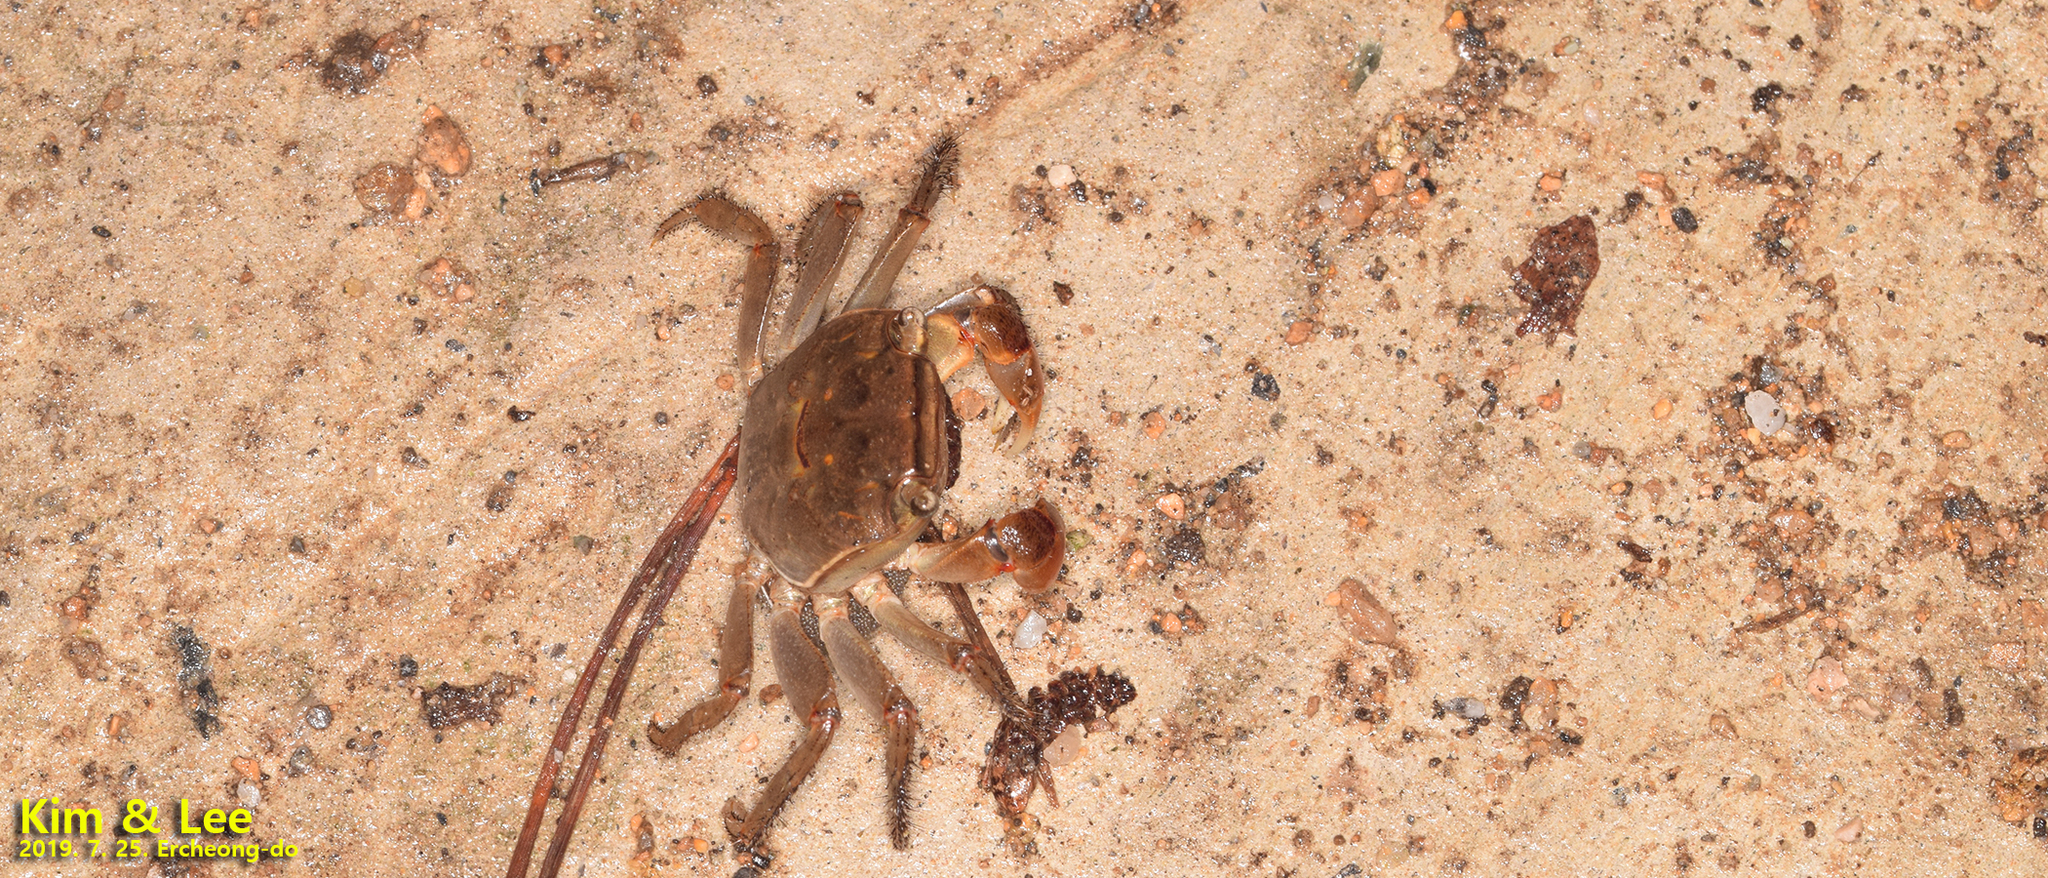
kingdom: Animalia
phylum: Arthropoda
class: Malacostraca
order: Decapoda
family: Sesarmidae
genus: Chiromantes
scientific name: Chiromantes haematocheir
